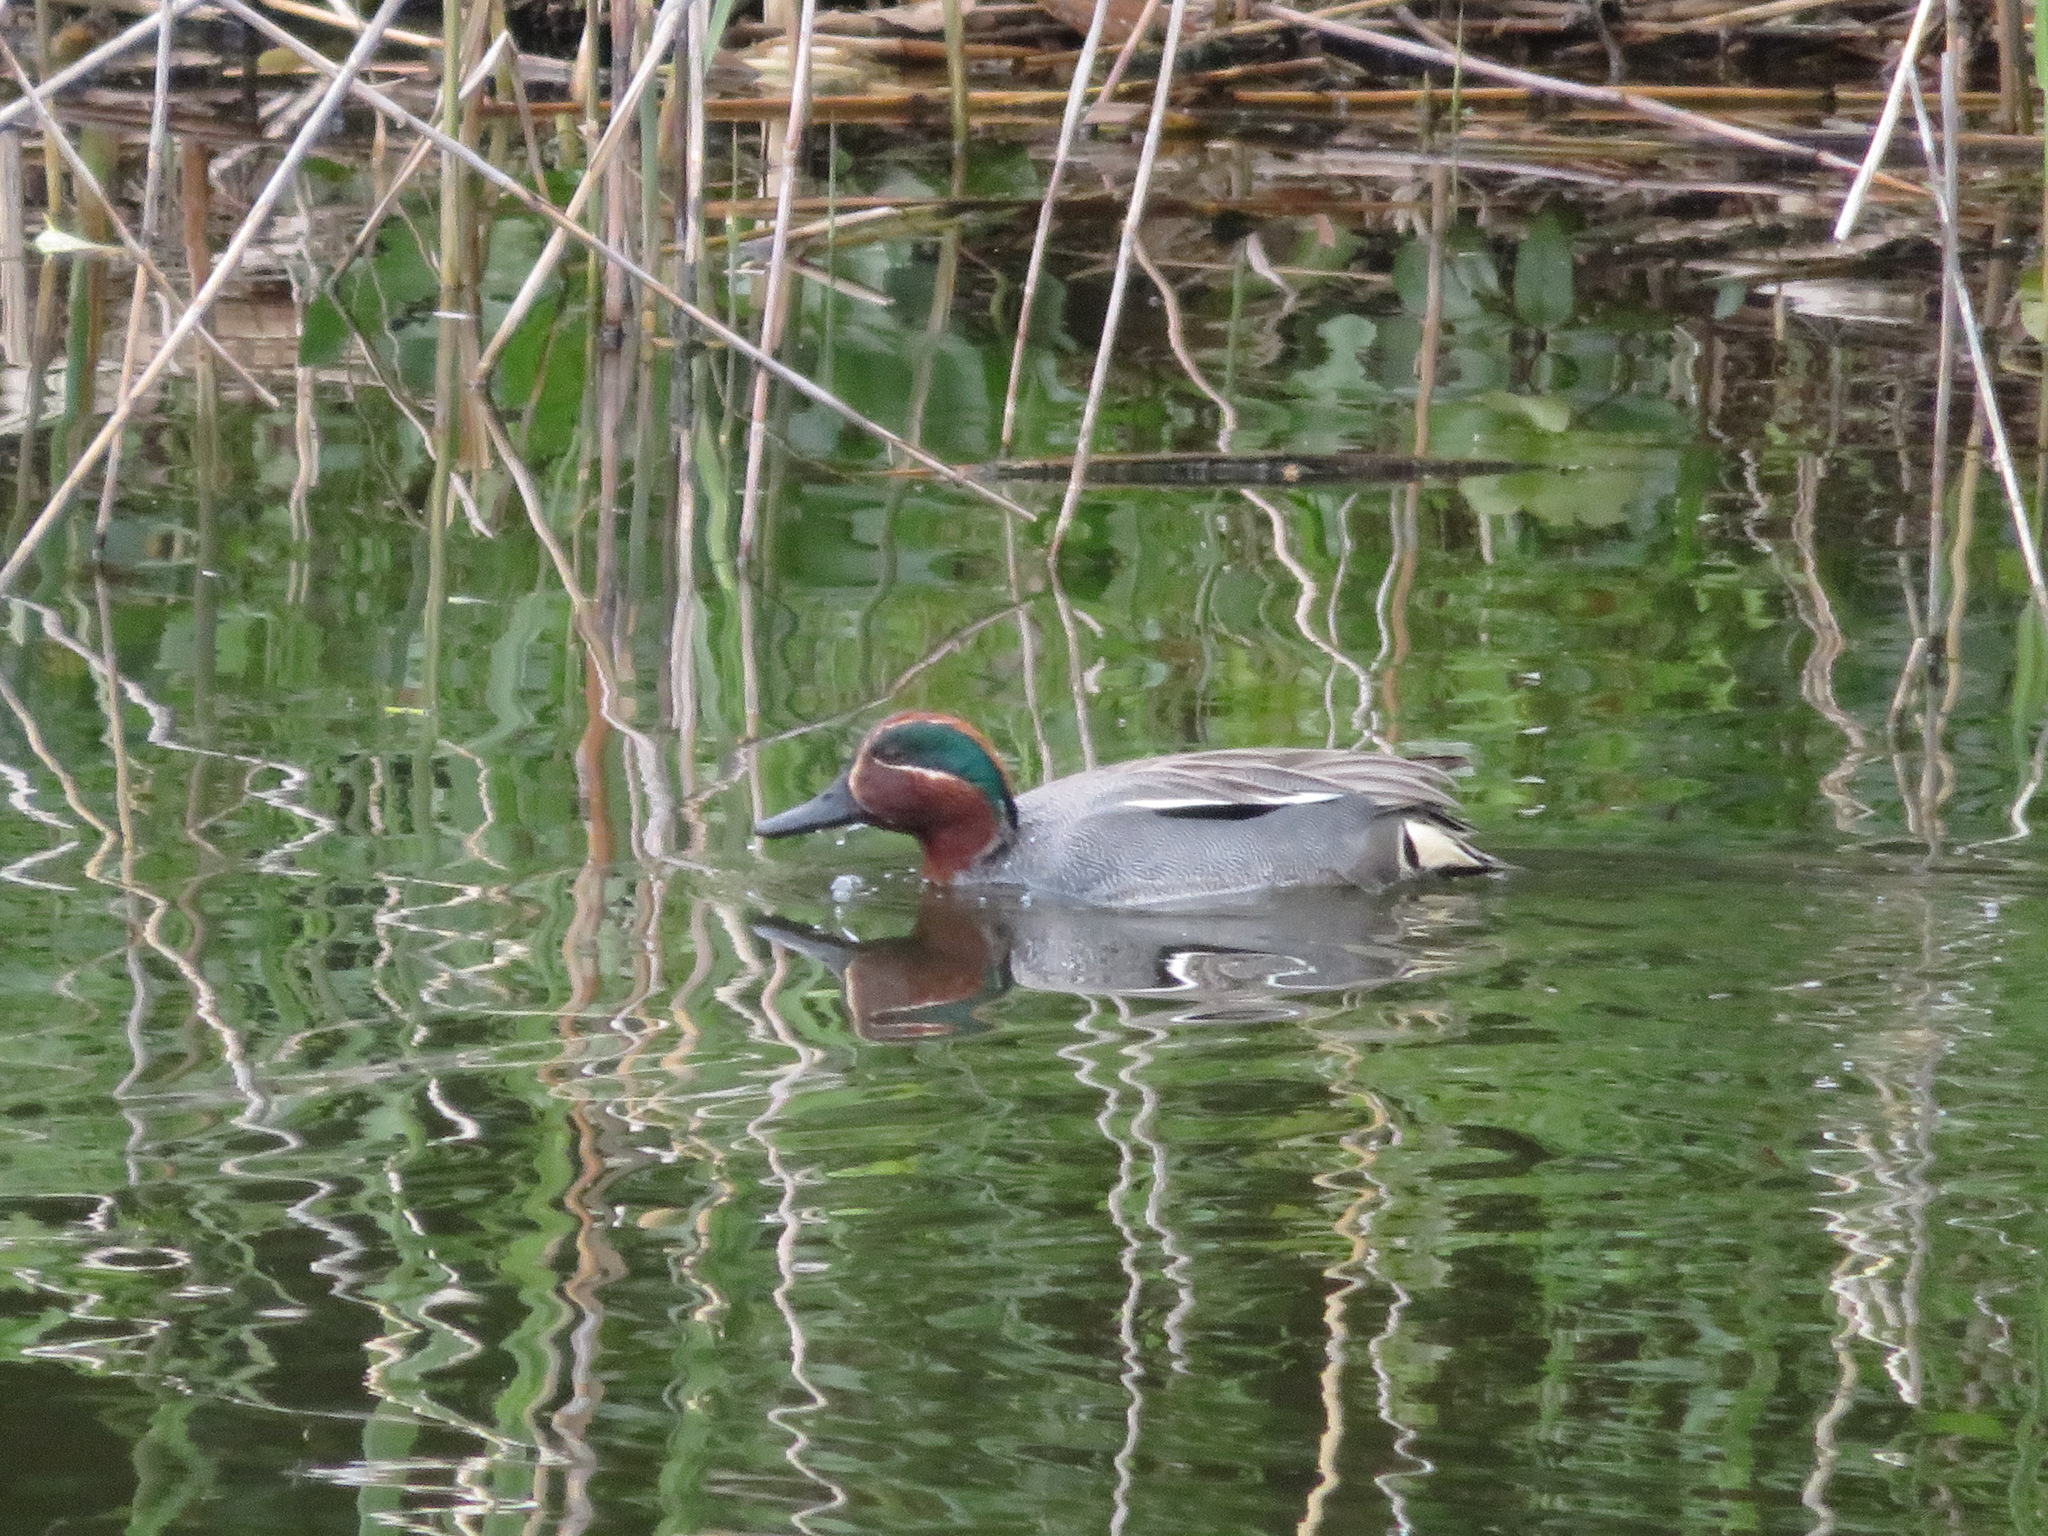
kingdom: Animalia
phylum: Chordata
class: Aves
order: Anseriformes
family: Anatidae
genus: Anas
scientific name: Anas crecca
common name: Eurasian teal
